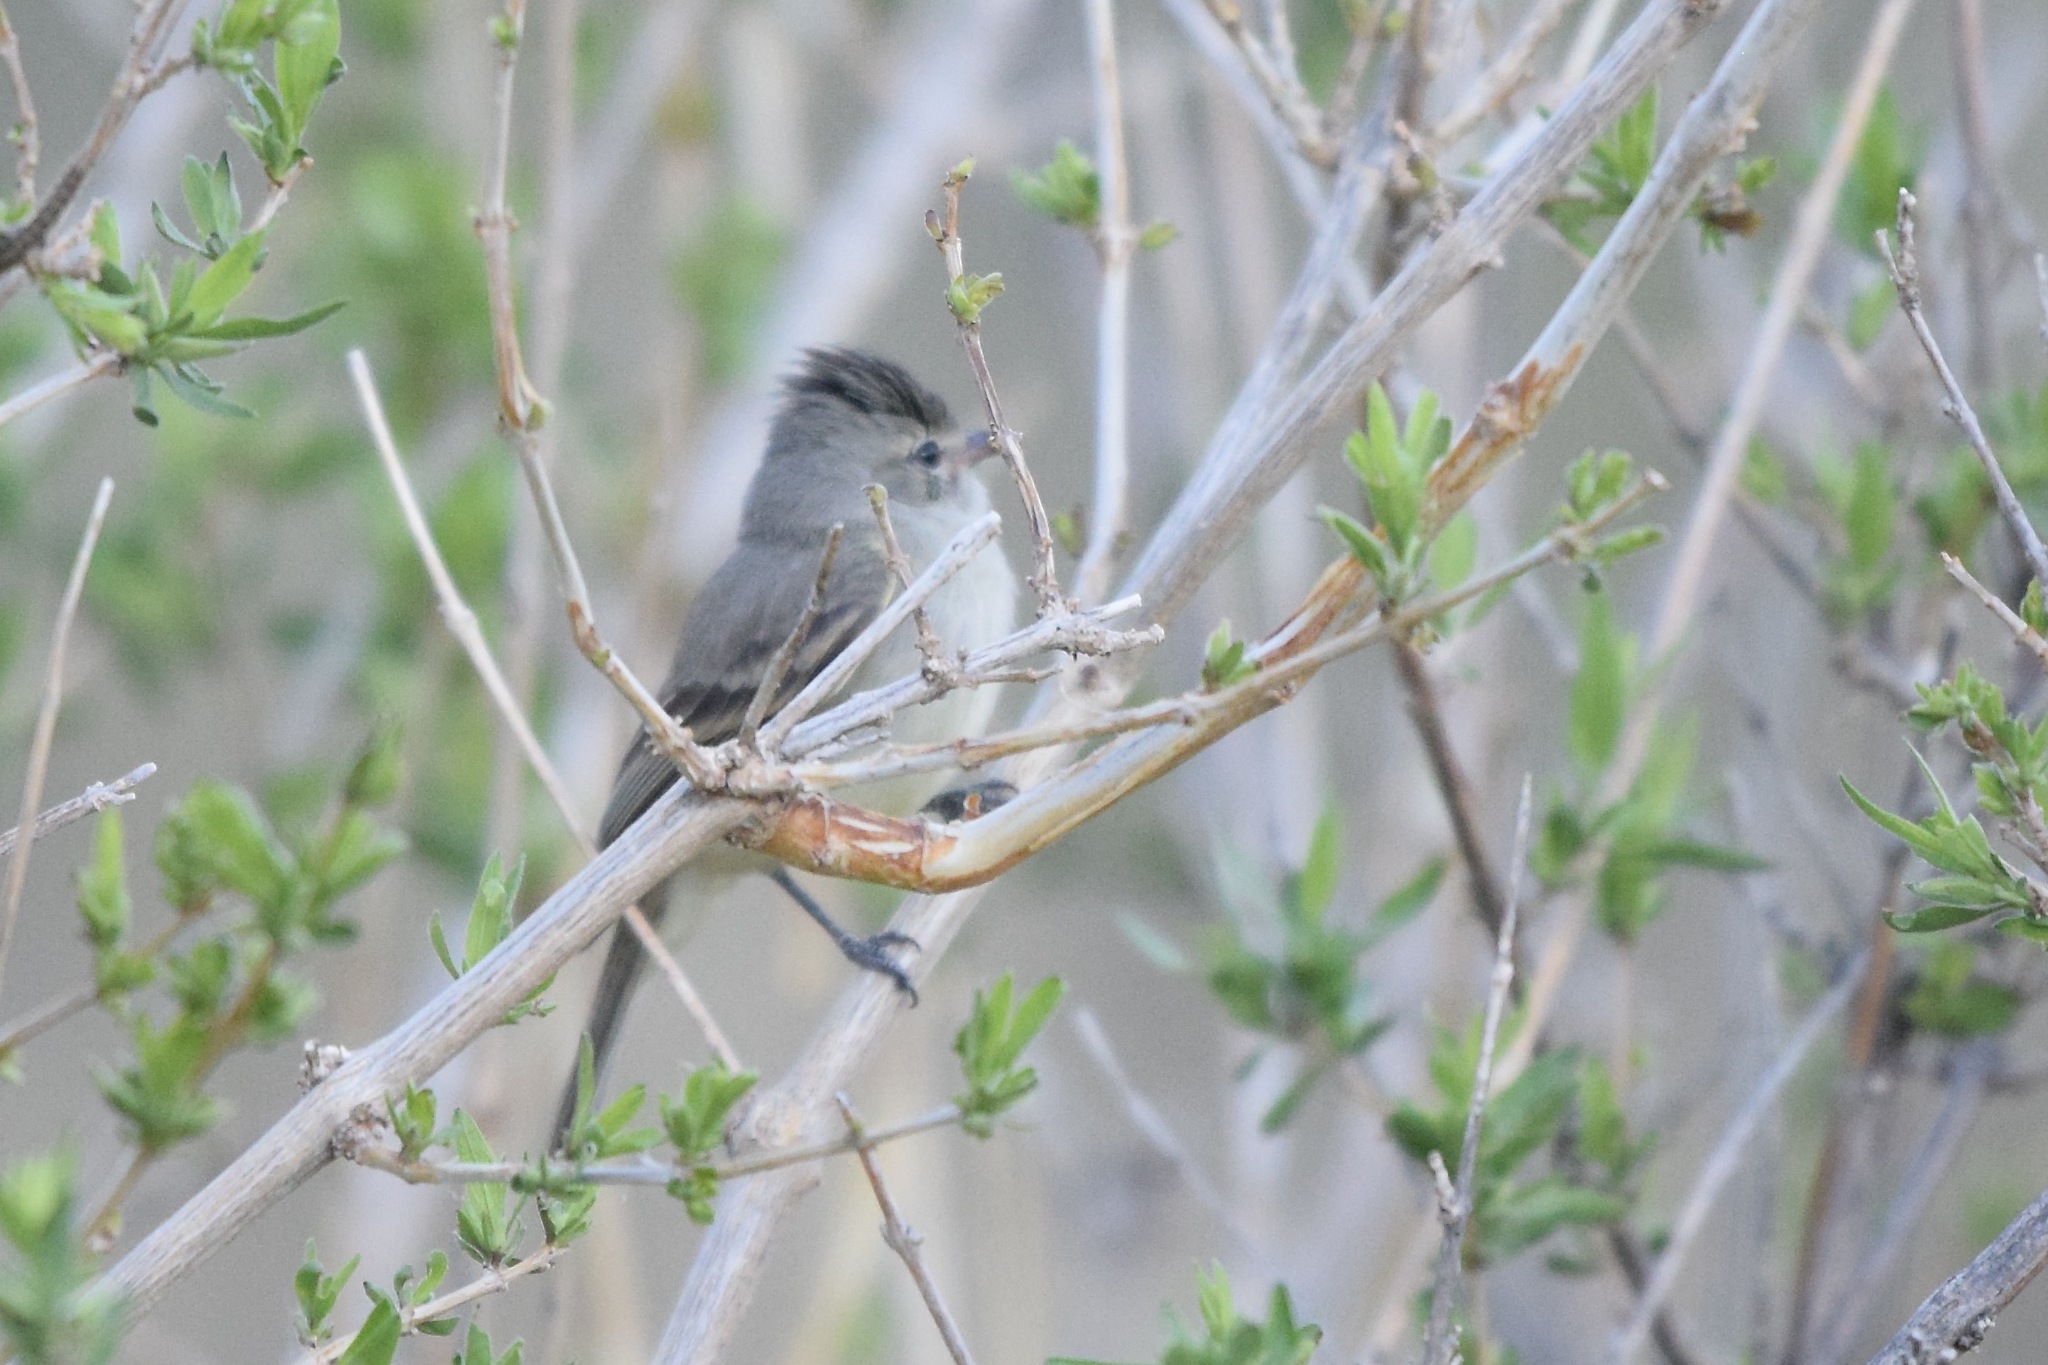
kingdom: Animalia
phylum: Chordata
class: Aves
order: Passeriformes
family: Tyrannidae
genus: Camptostoma
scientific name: Camptostoma imberbe
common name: Northern beardless-tyrannulet
